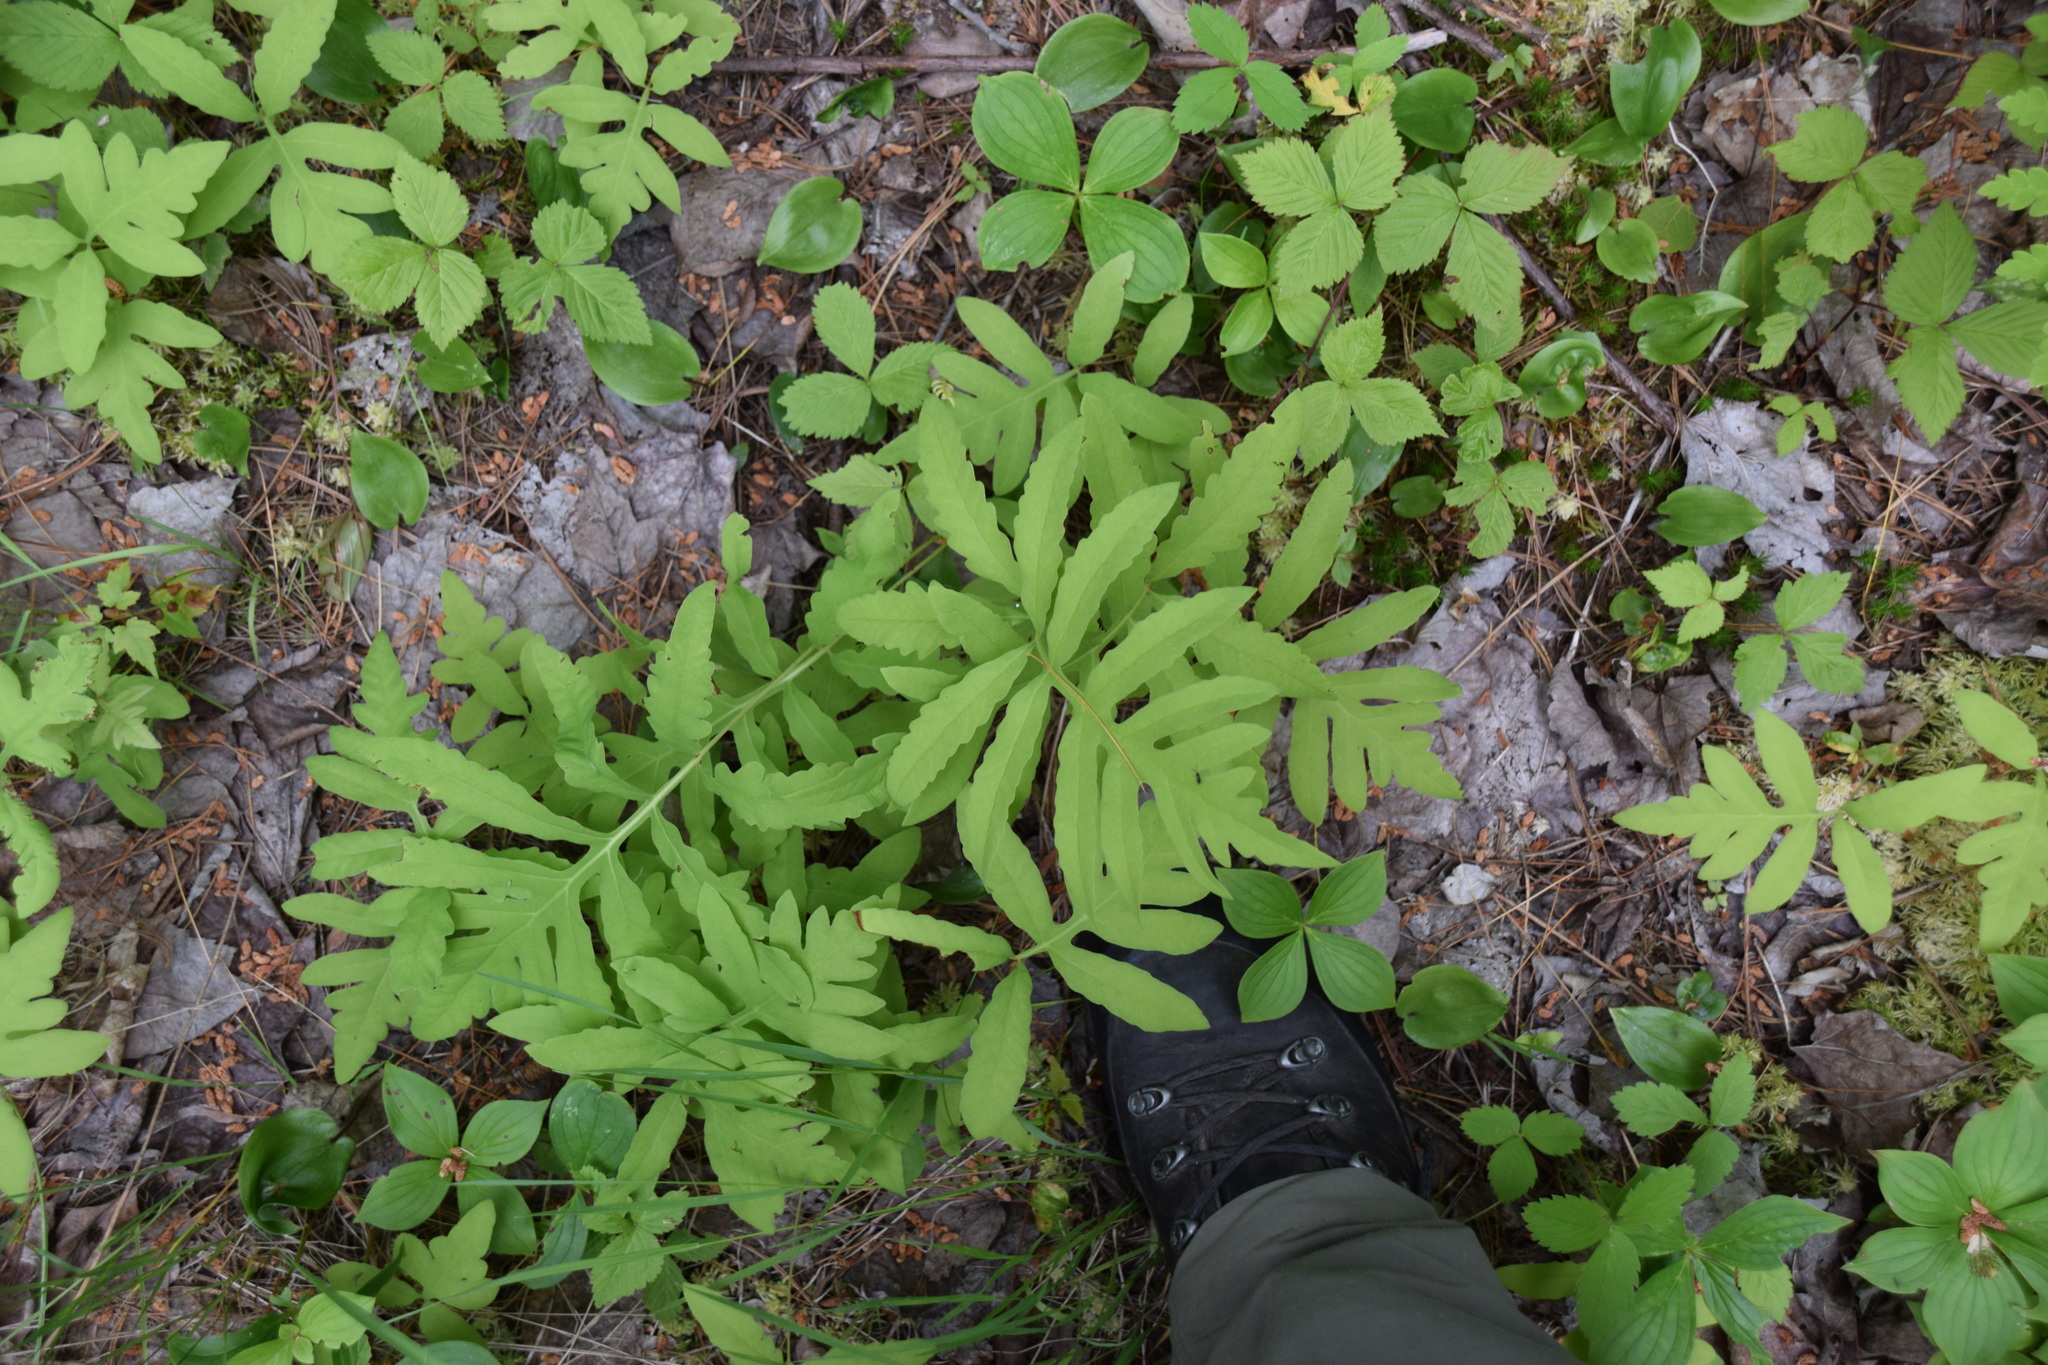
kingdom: Plantae
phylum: Tracheophyta
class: Polypodiopsida
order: Polypodiales
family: Onocleaceae
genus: Onoclea
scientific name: Onoclea sensibilis
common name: Sensitive fern
